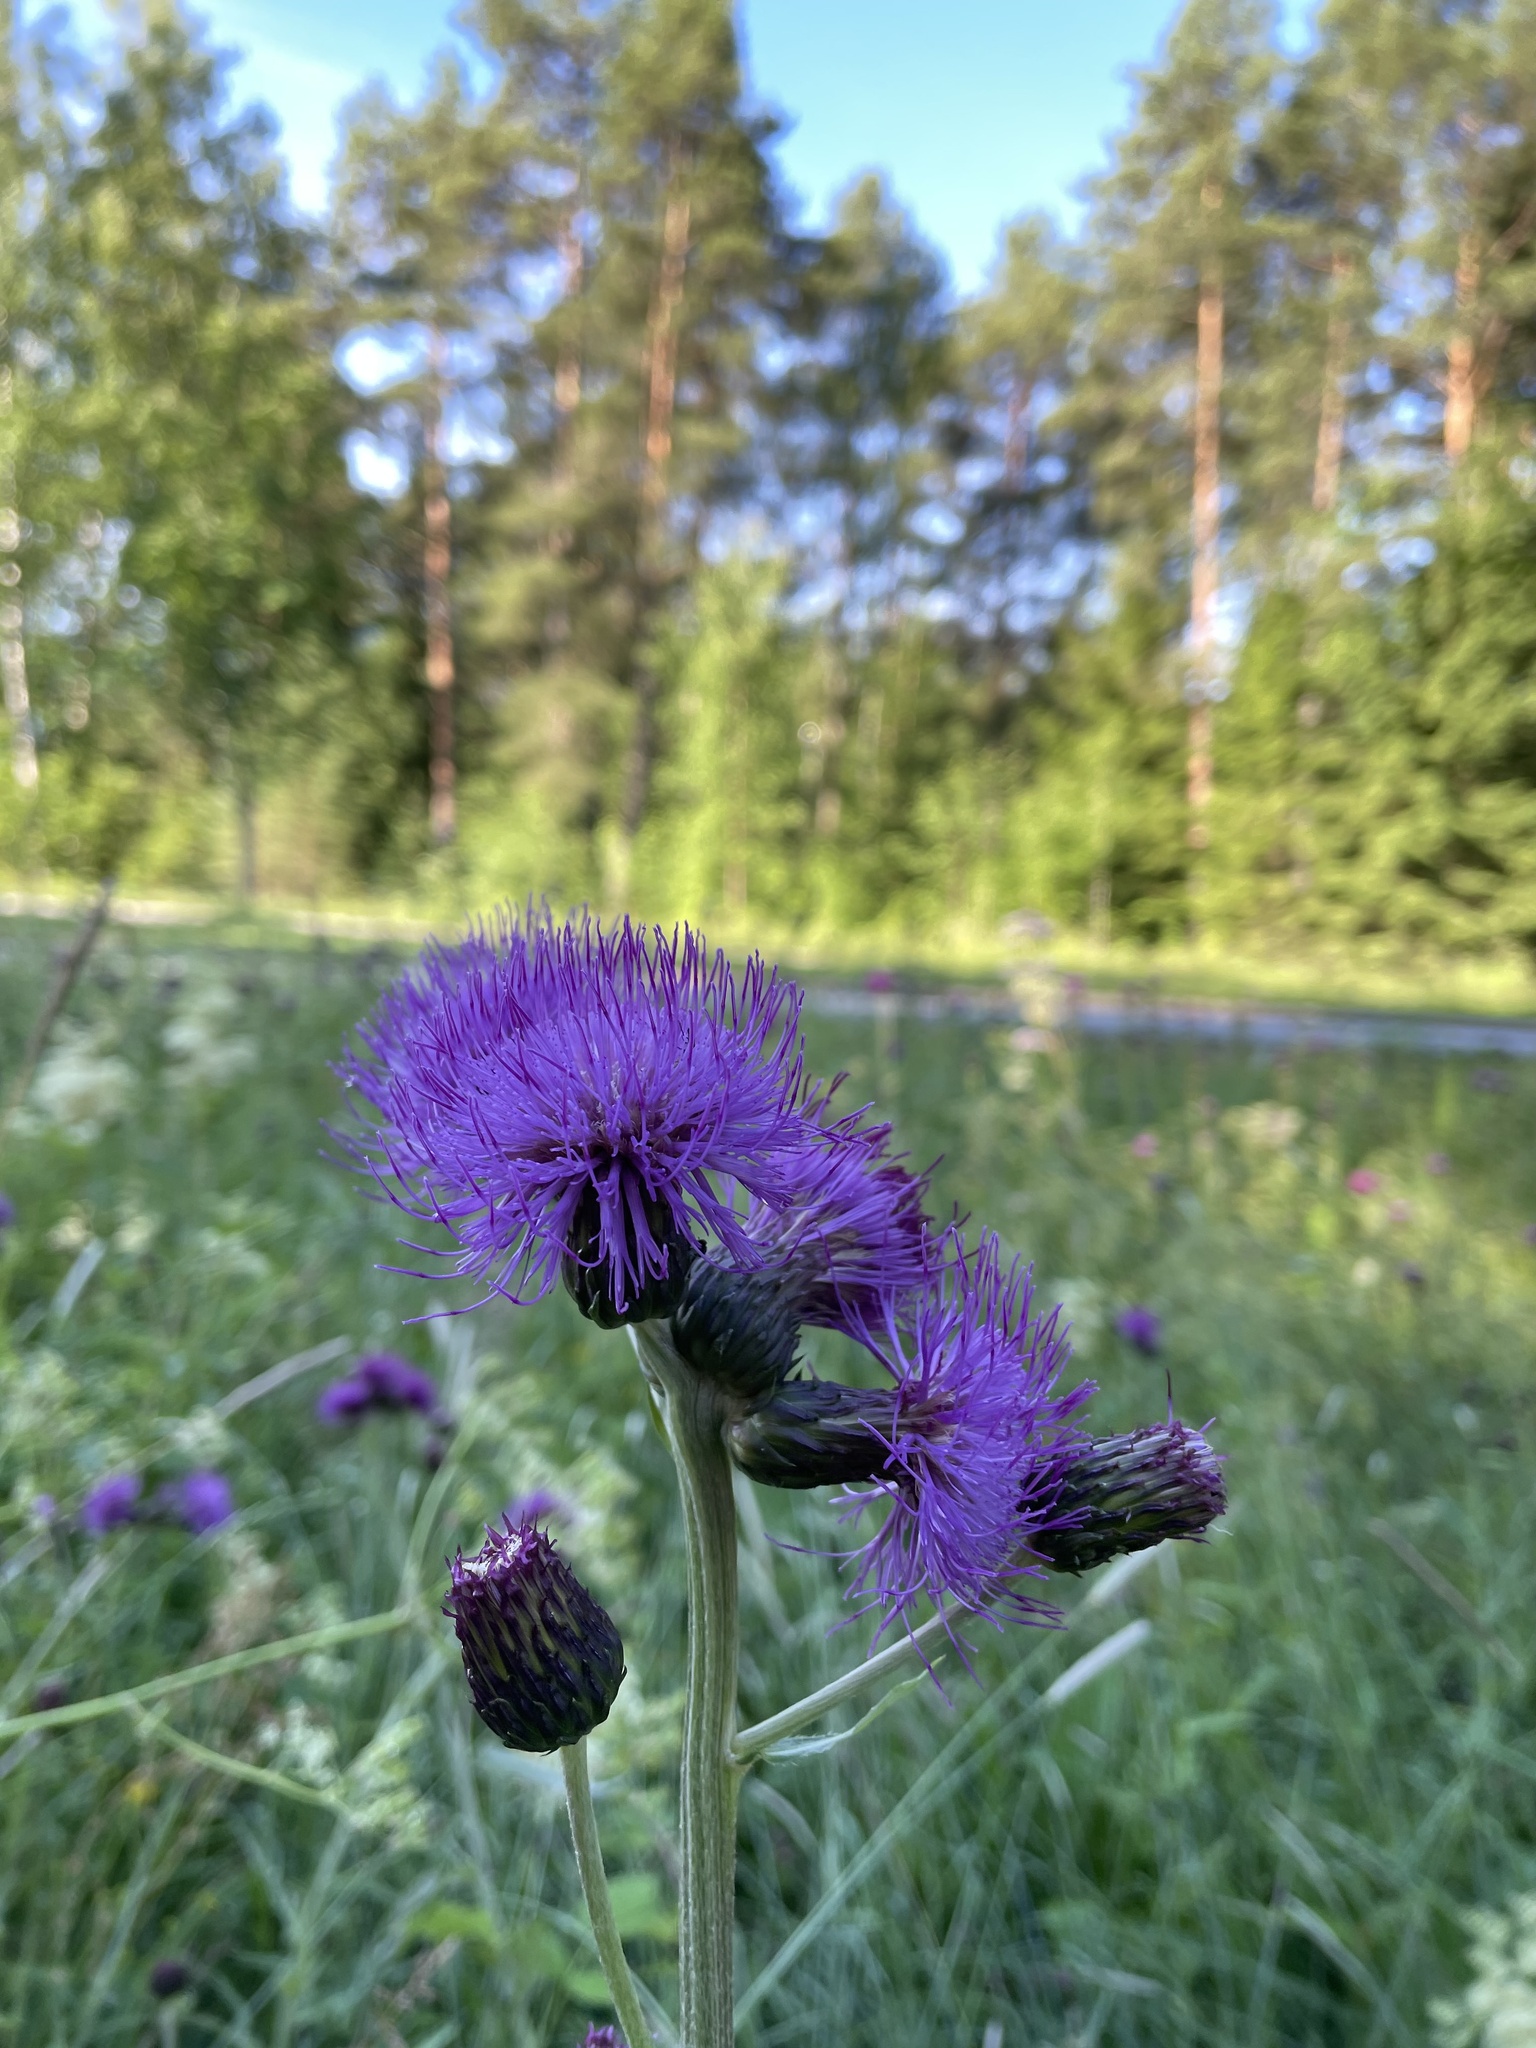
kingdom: Plantae
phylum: Tracheophyta
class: Magnoliopsida
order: Asterales
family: Asteraceae
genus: Cirsium
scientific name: Cirsium heterophyllum
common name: Melancholy thistle
